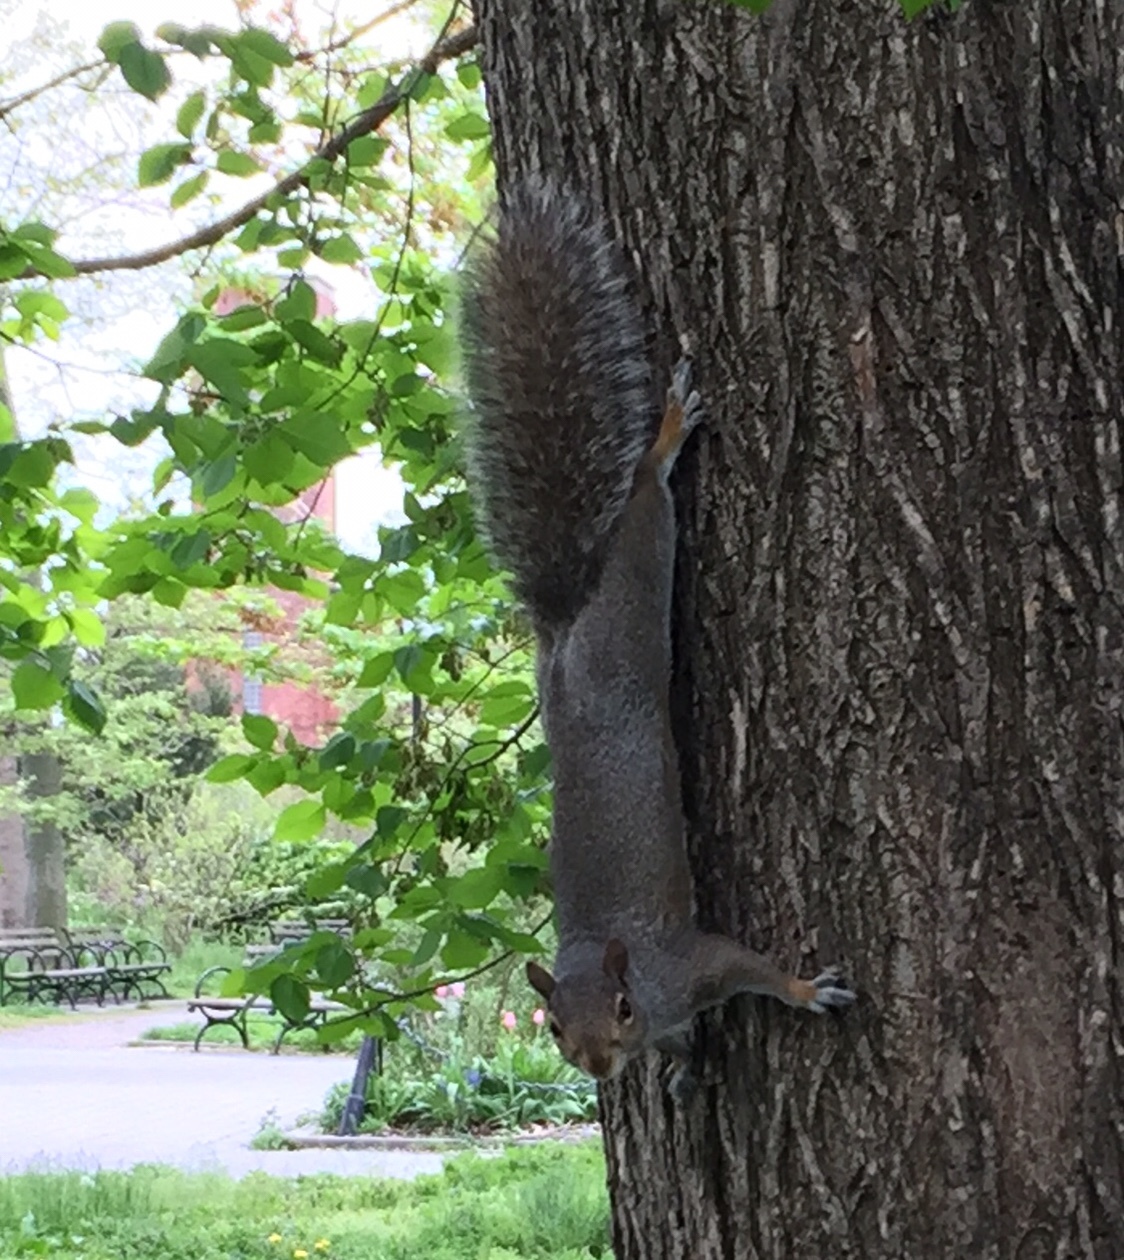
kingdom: Animalia
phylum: Chordata
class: Mammalia
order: Rodentia
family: Sciuridae
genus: Sciurus
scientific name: Sciurus carolinensis
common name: Eastern gray squirrel
